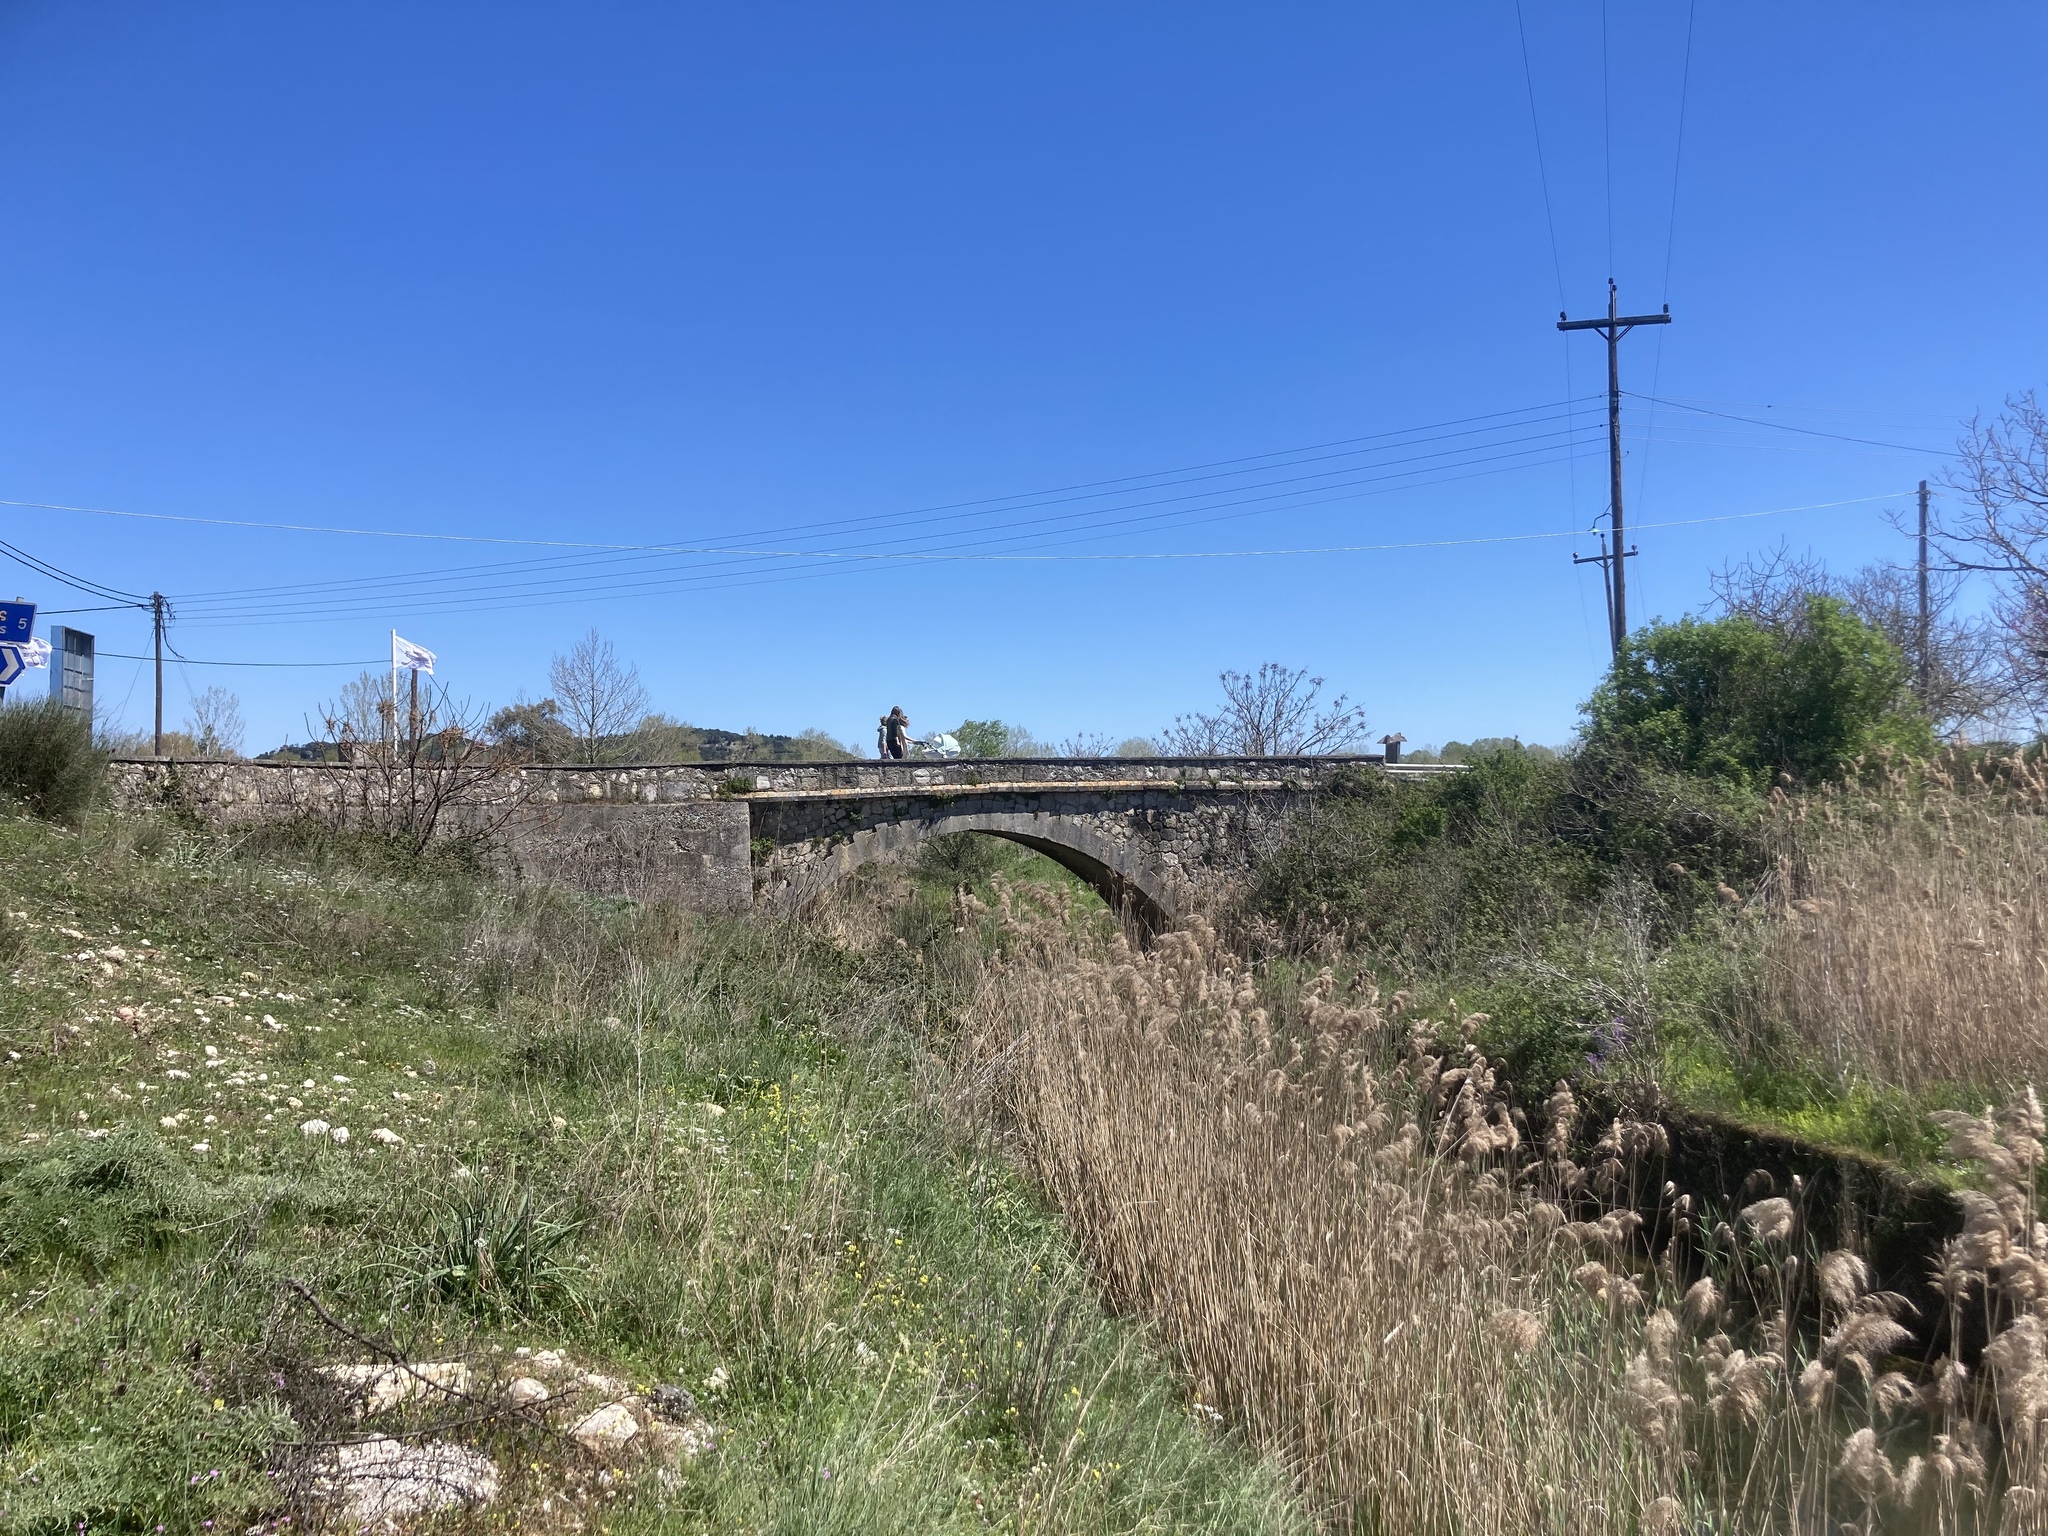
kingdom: Plantae
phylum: Tracheophyta
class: Liliopsida
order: Poales
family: Poaceae
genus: Phragmites
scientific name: Phragmites australis
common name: Common reed
